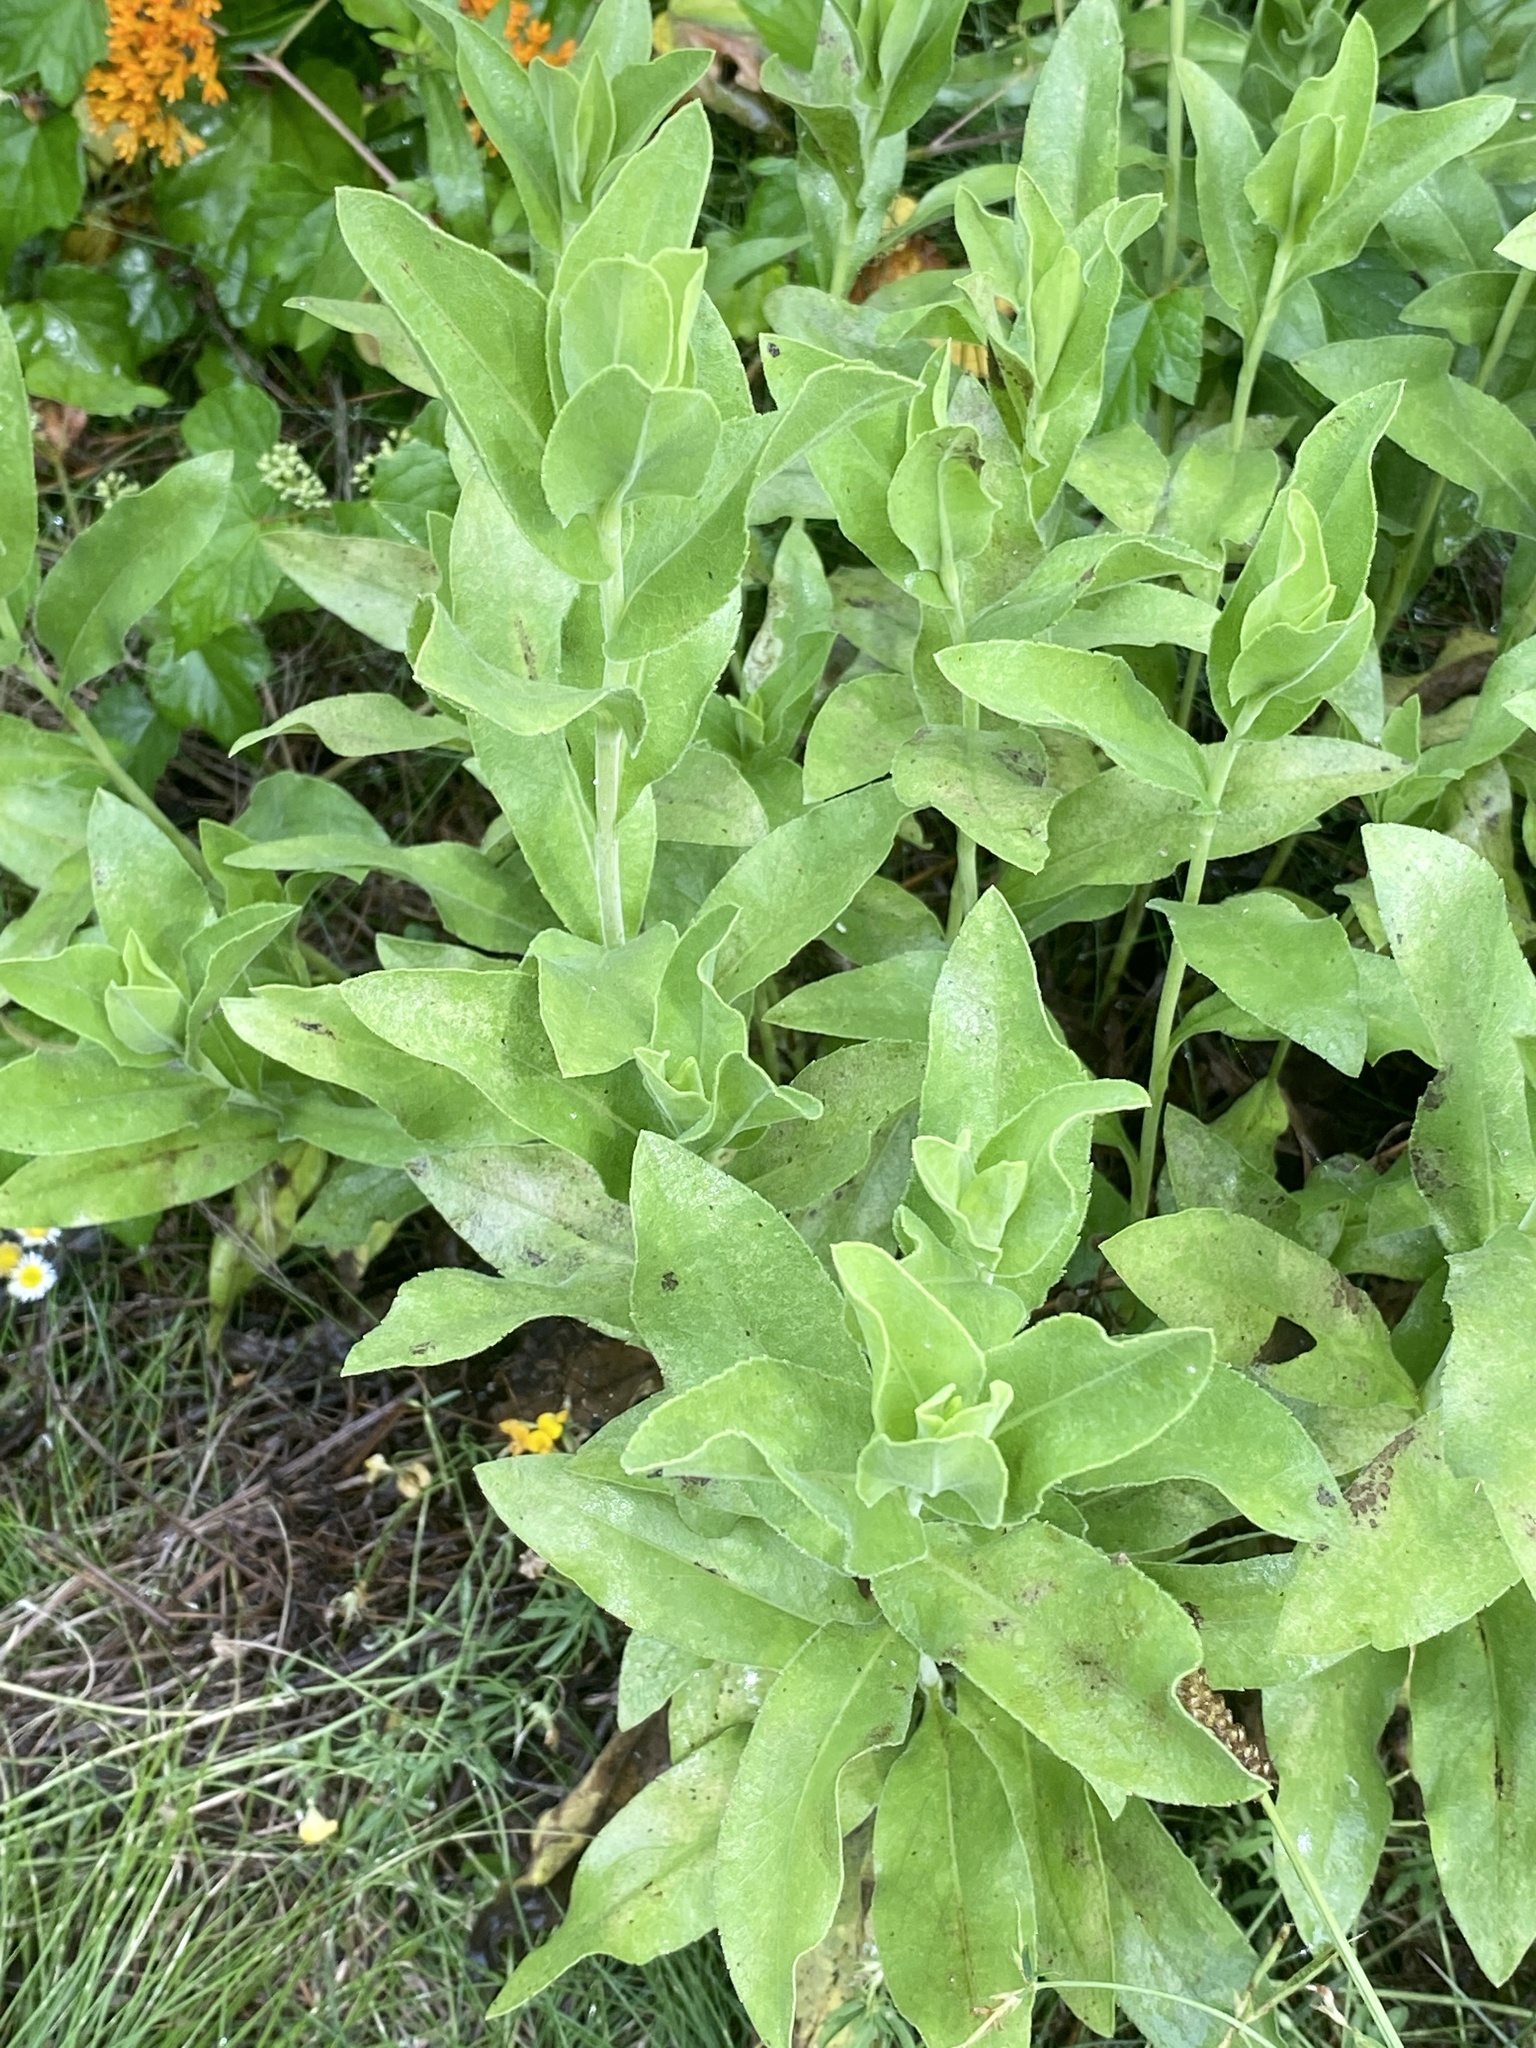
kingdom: Plantae
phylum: Tracheophyta
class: Magnoliopsida
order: Asterales
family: Asteraceae
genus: Solidago
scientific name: Solidago rigida
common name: Rigid goldenrod
